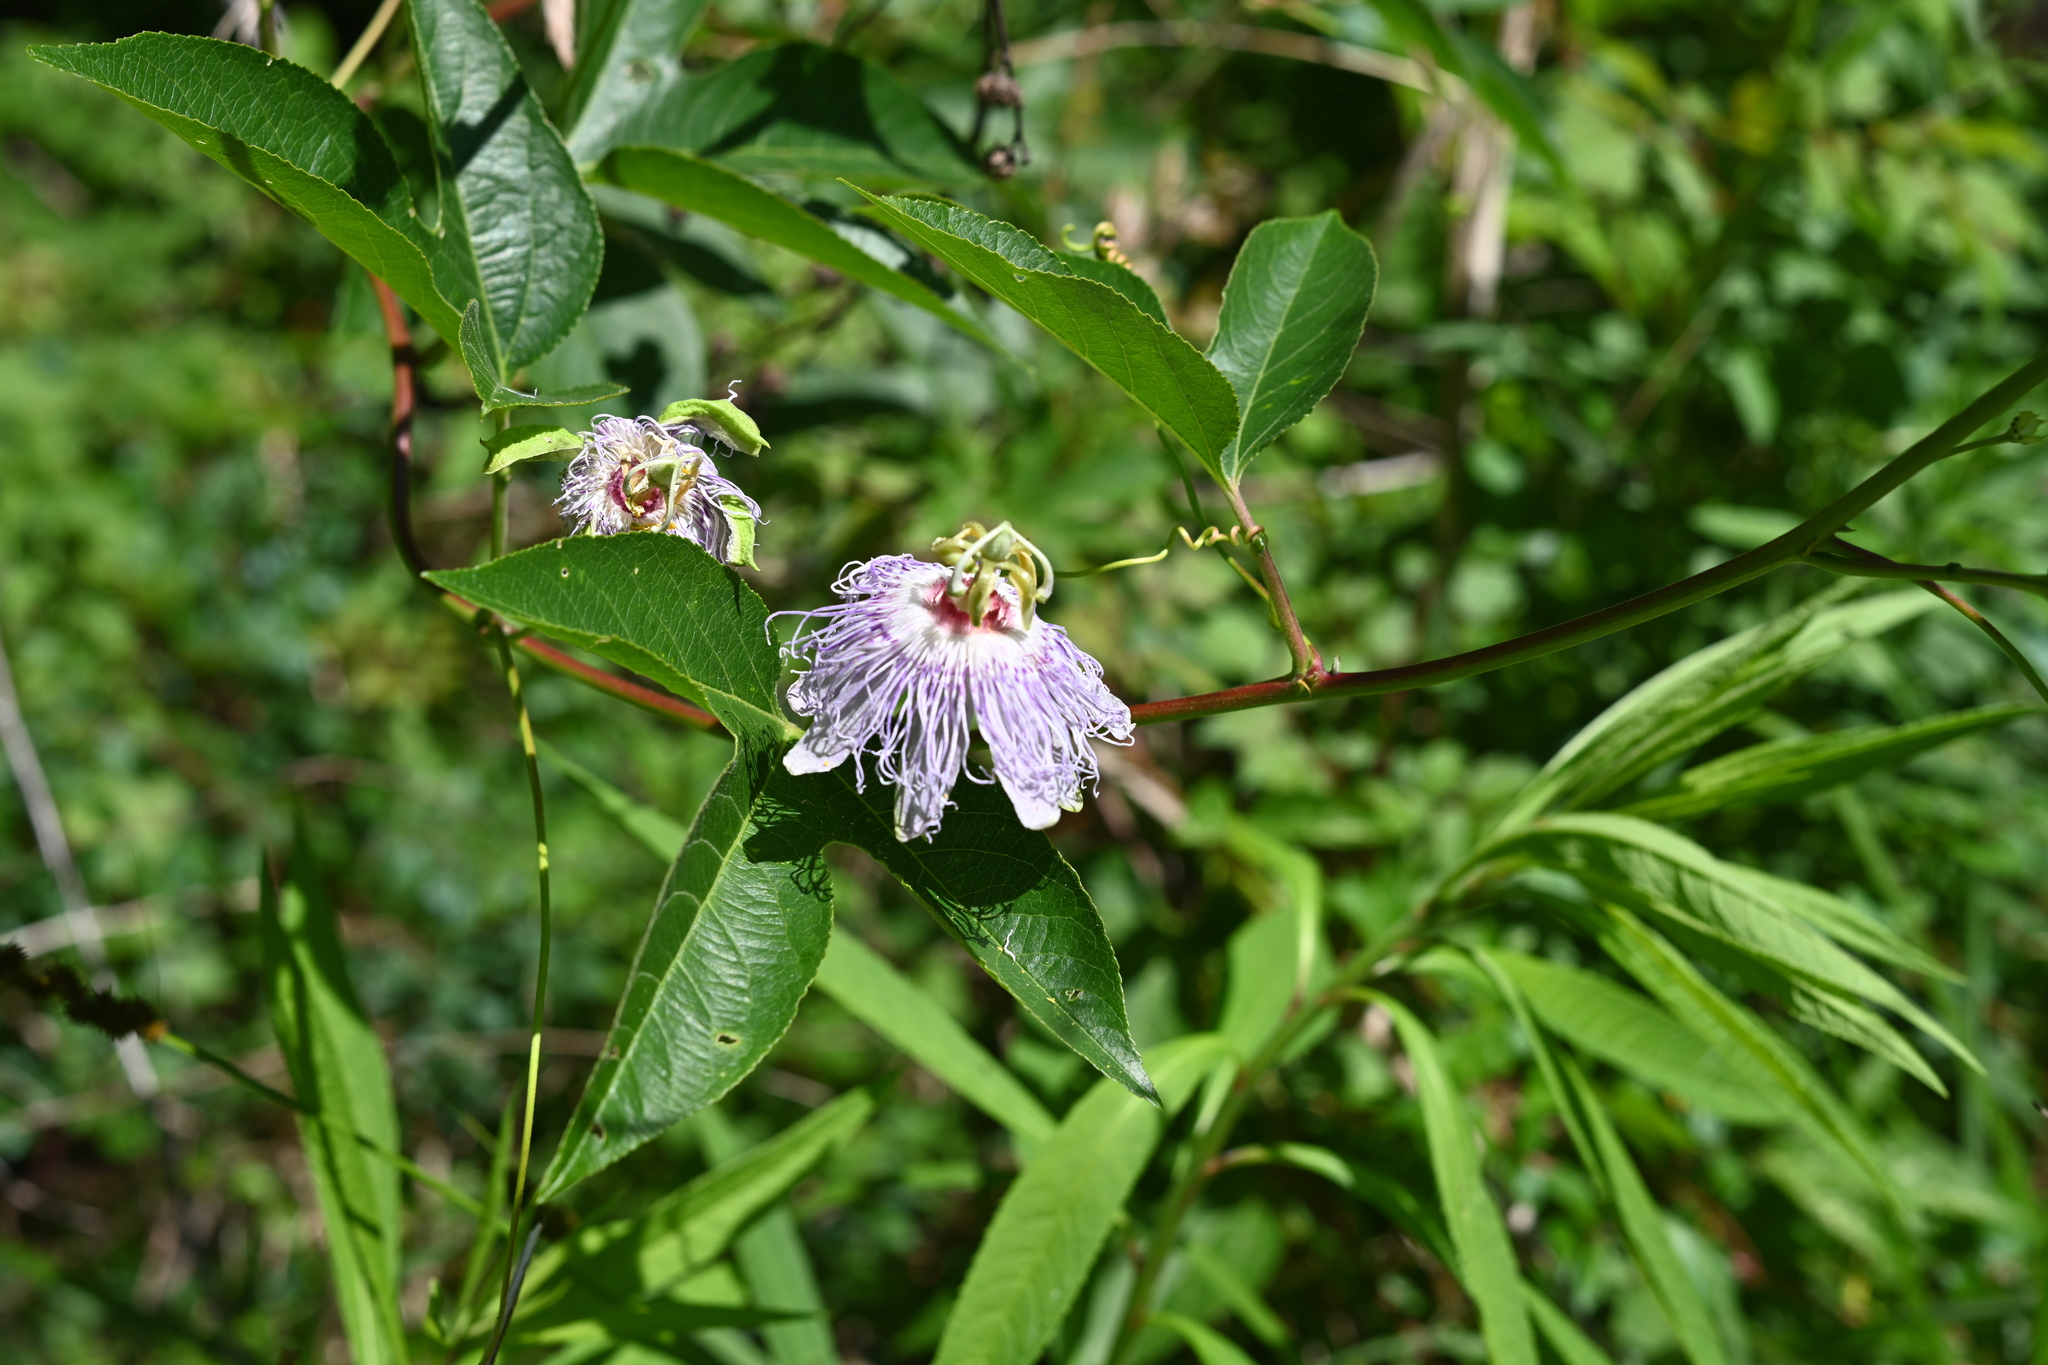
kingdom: Plantae
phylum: Tracheophyta
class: Magnoliopsida
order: Malpighiales
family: Passifloraceae
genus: Passiflora
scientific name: Passiflora incarnata
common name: Apricot-vine
